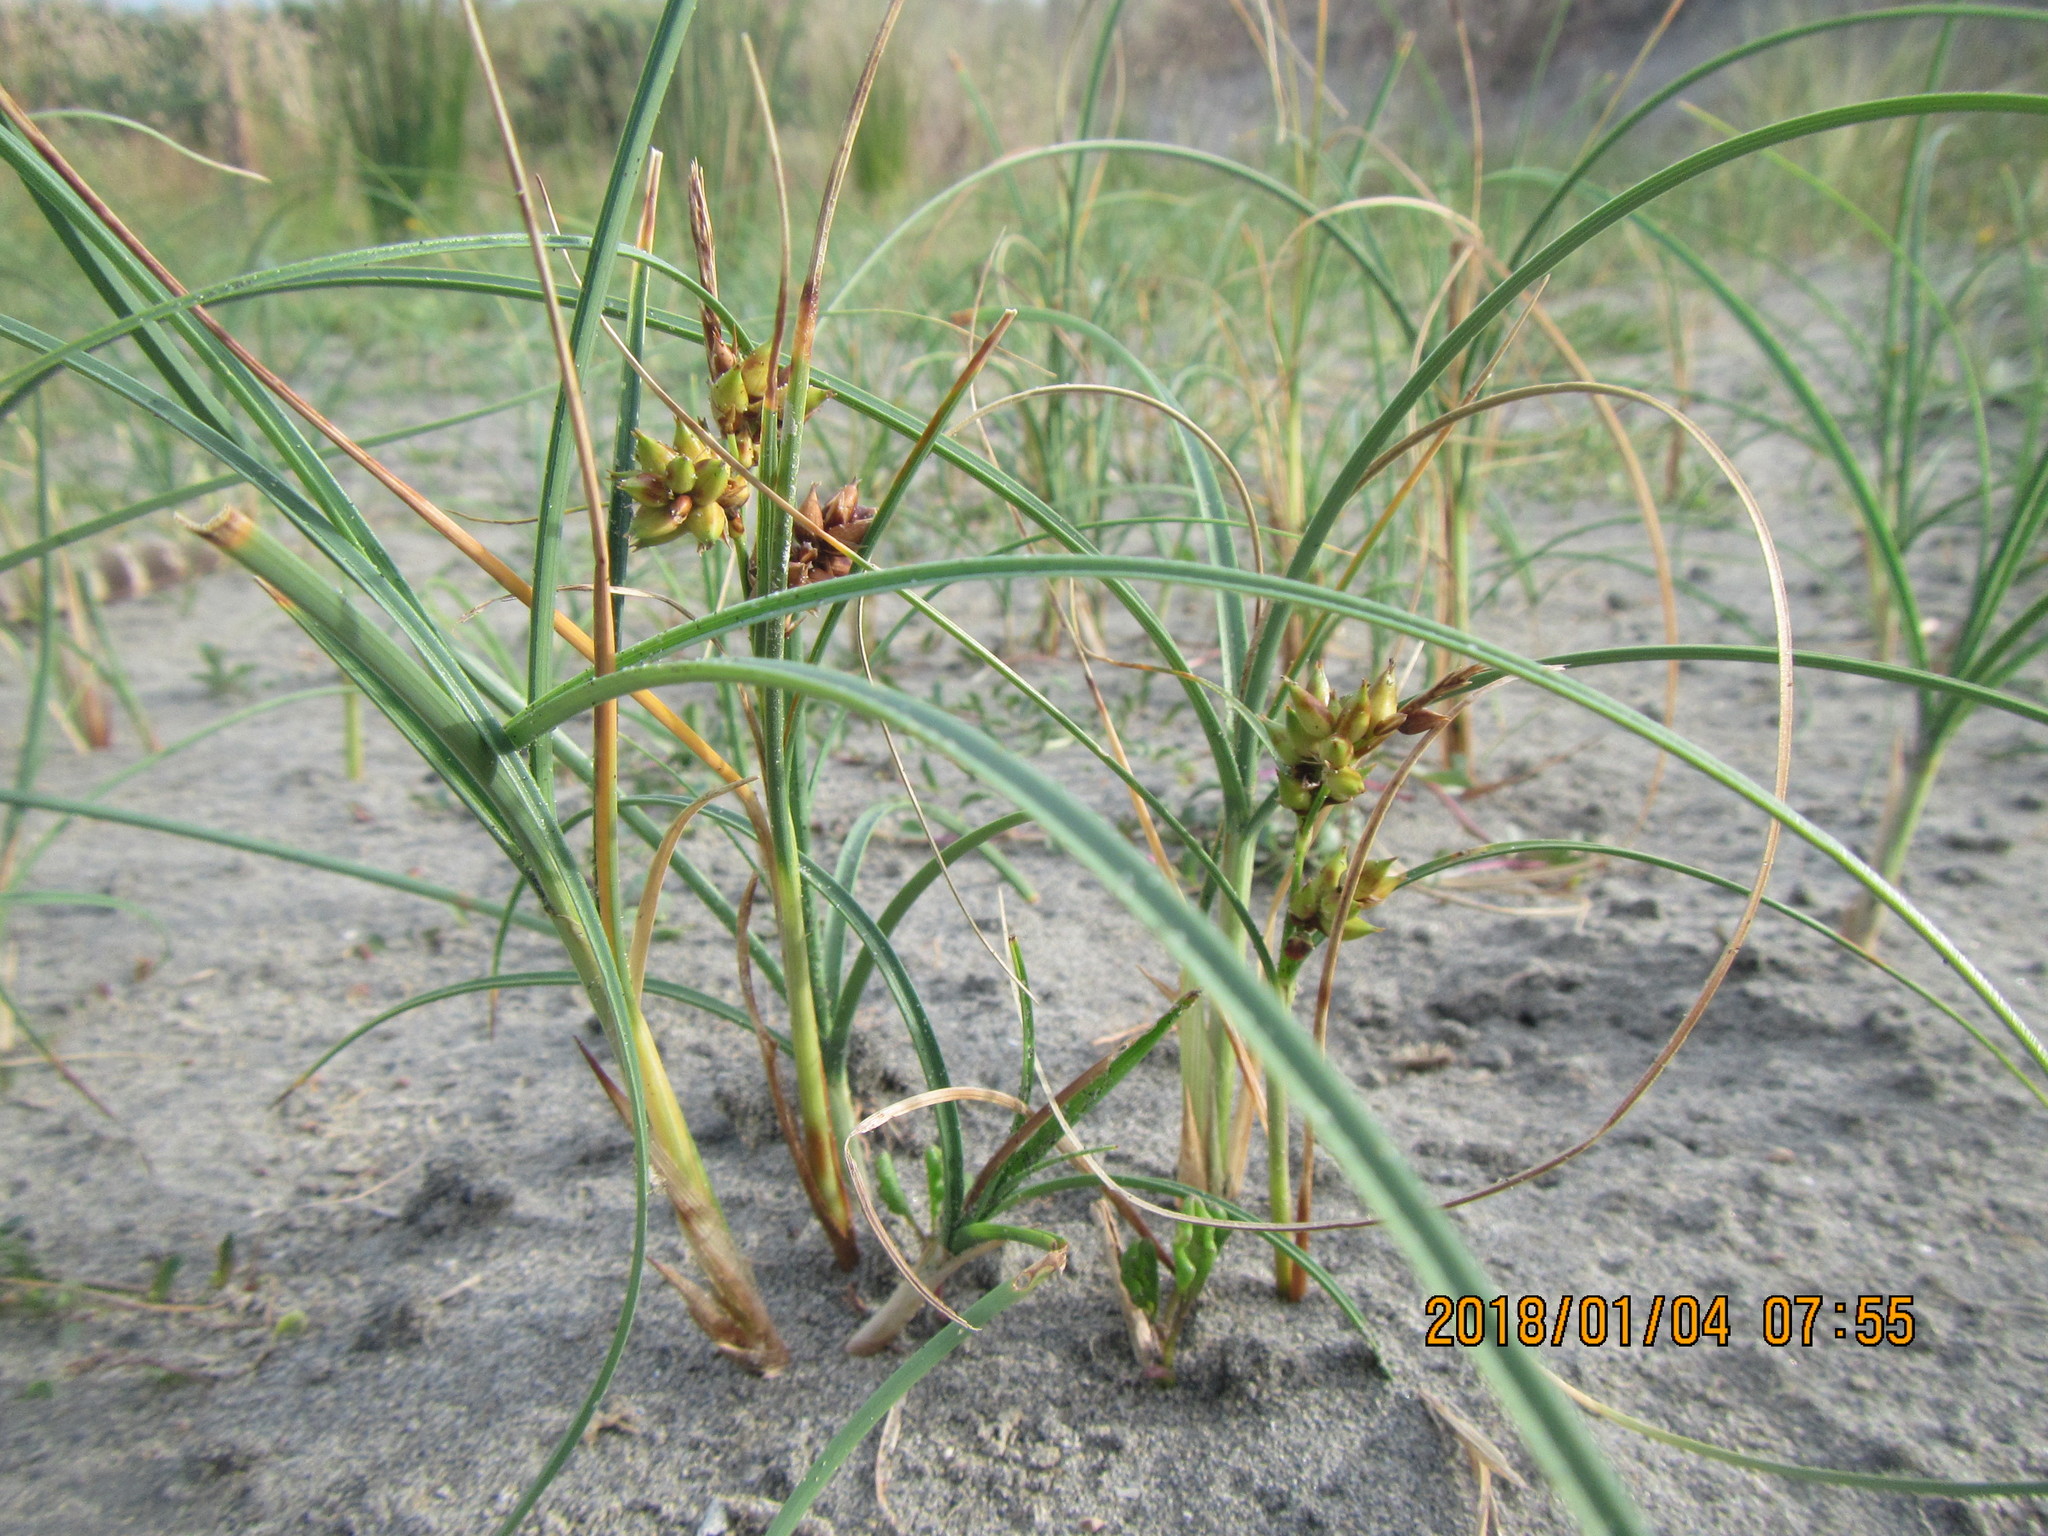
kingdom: Plantae
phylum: Tracheophyta
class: Liliopsida
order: Poales
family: Cyperaceae
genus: Carex
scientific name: Carex pumila
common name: Dwarf sedge
